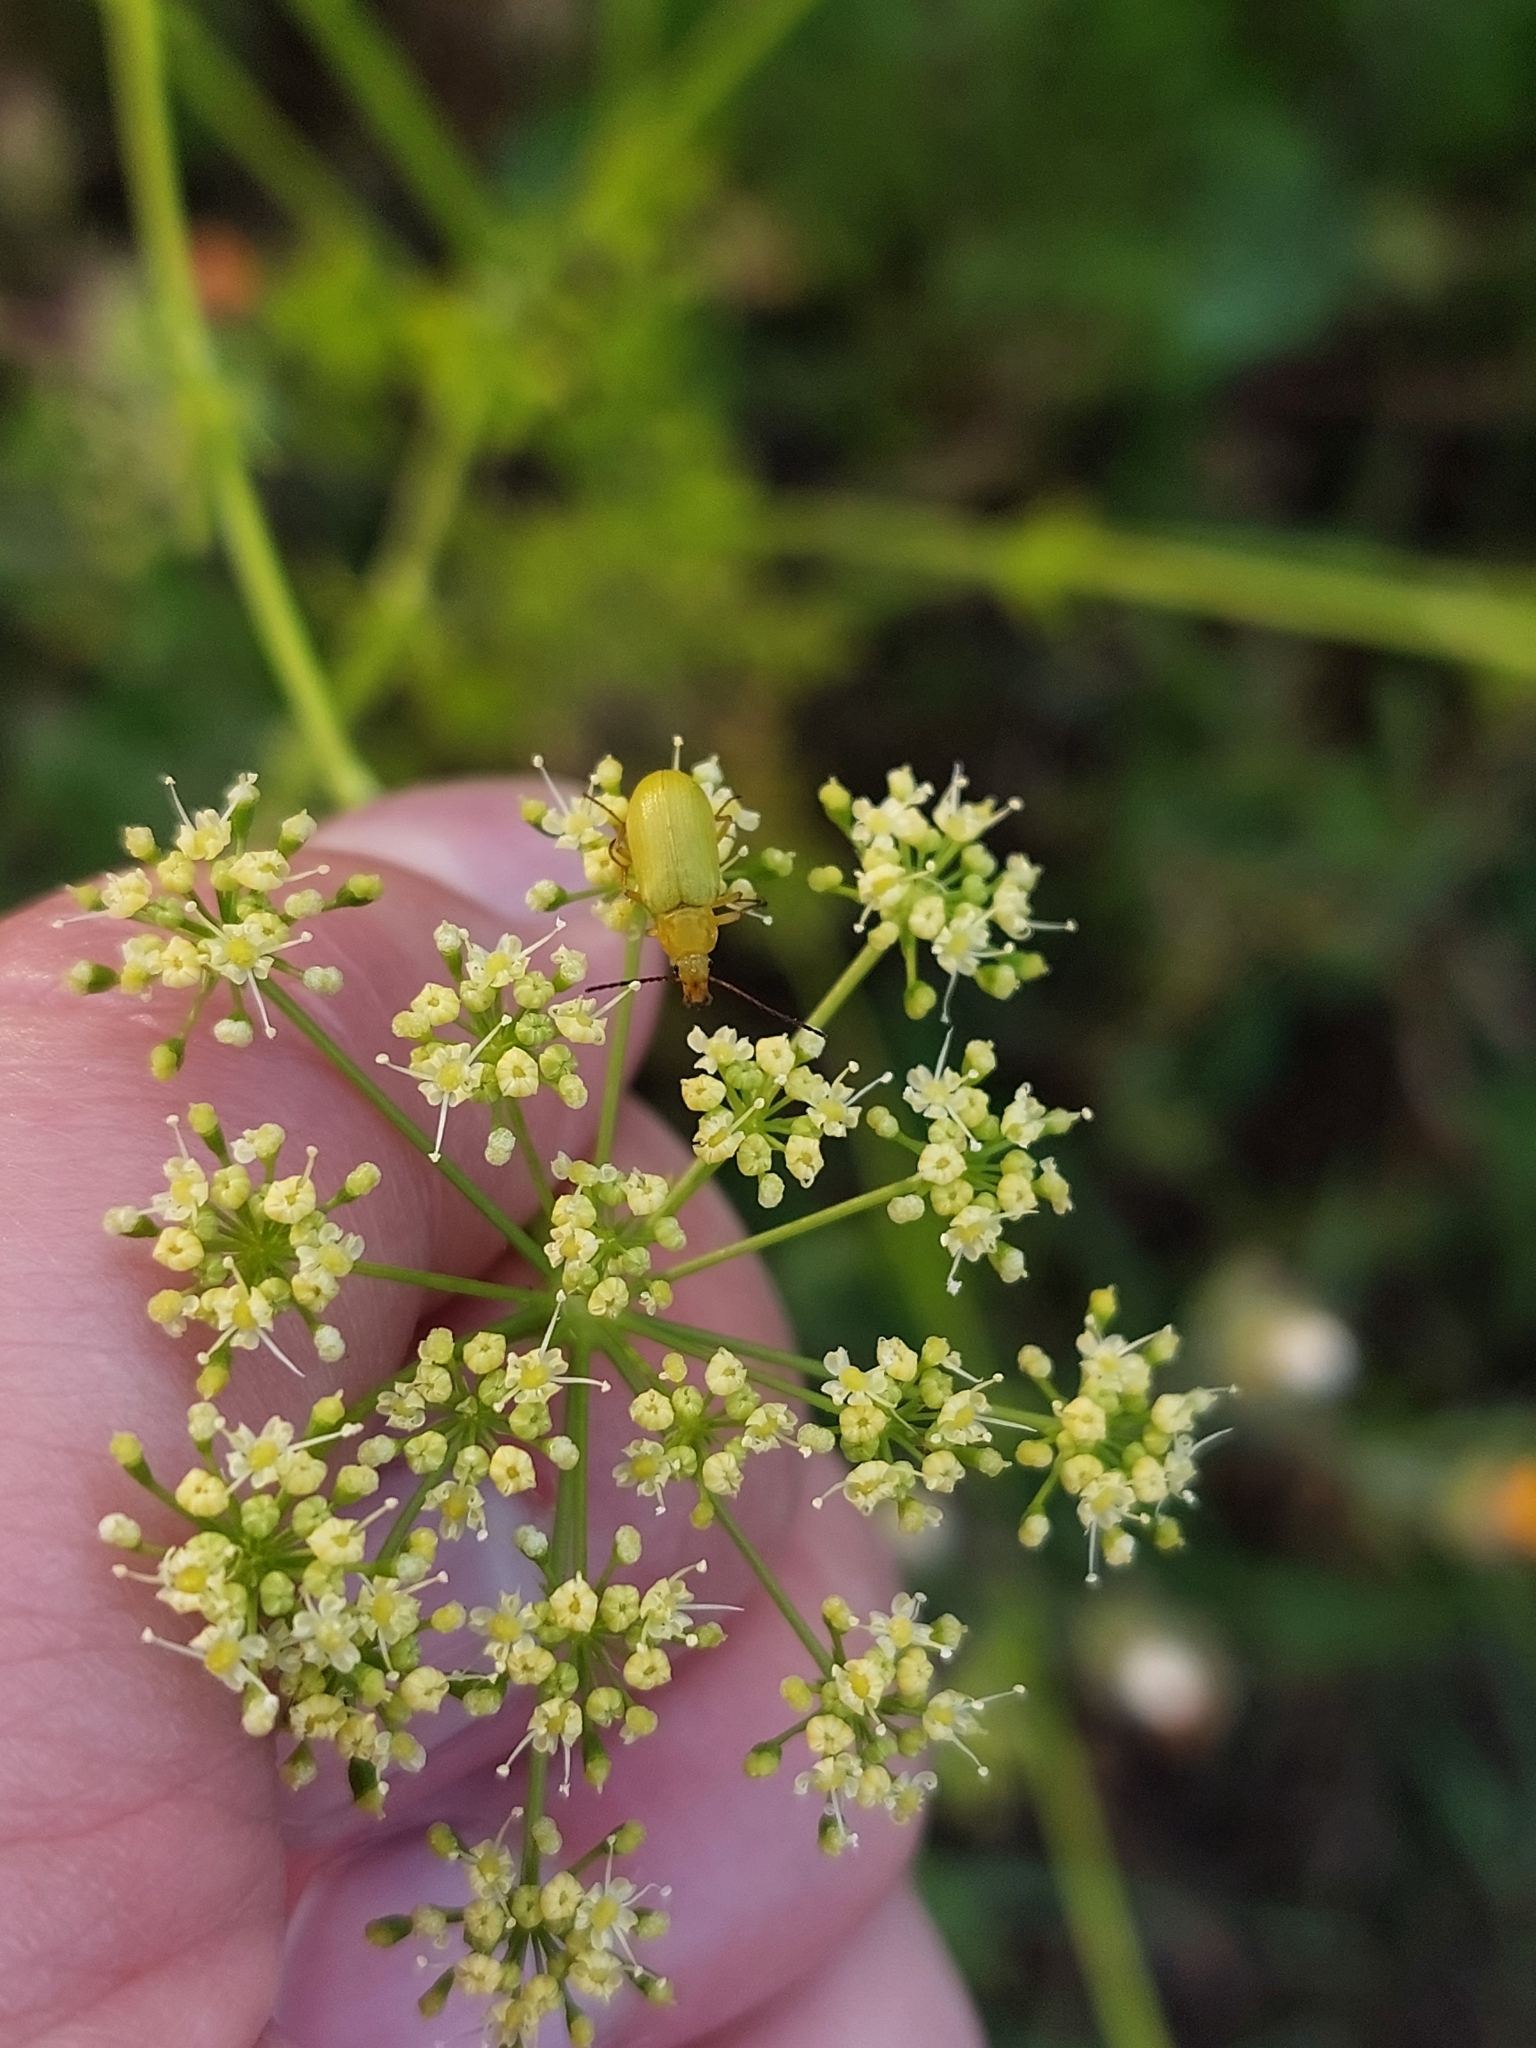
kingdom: Animalia
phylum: Arthropoda
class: Insecta
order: Coleoptera
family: Tenebrionidae
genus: Cteniopus
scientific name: Cteniopus sulphureus
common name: Sulphur beetle
